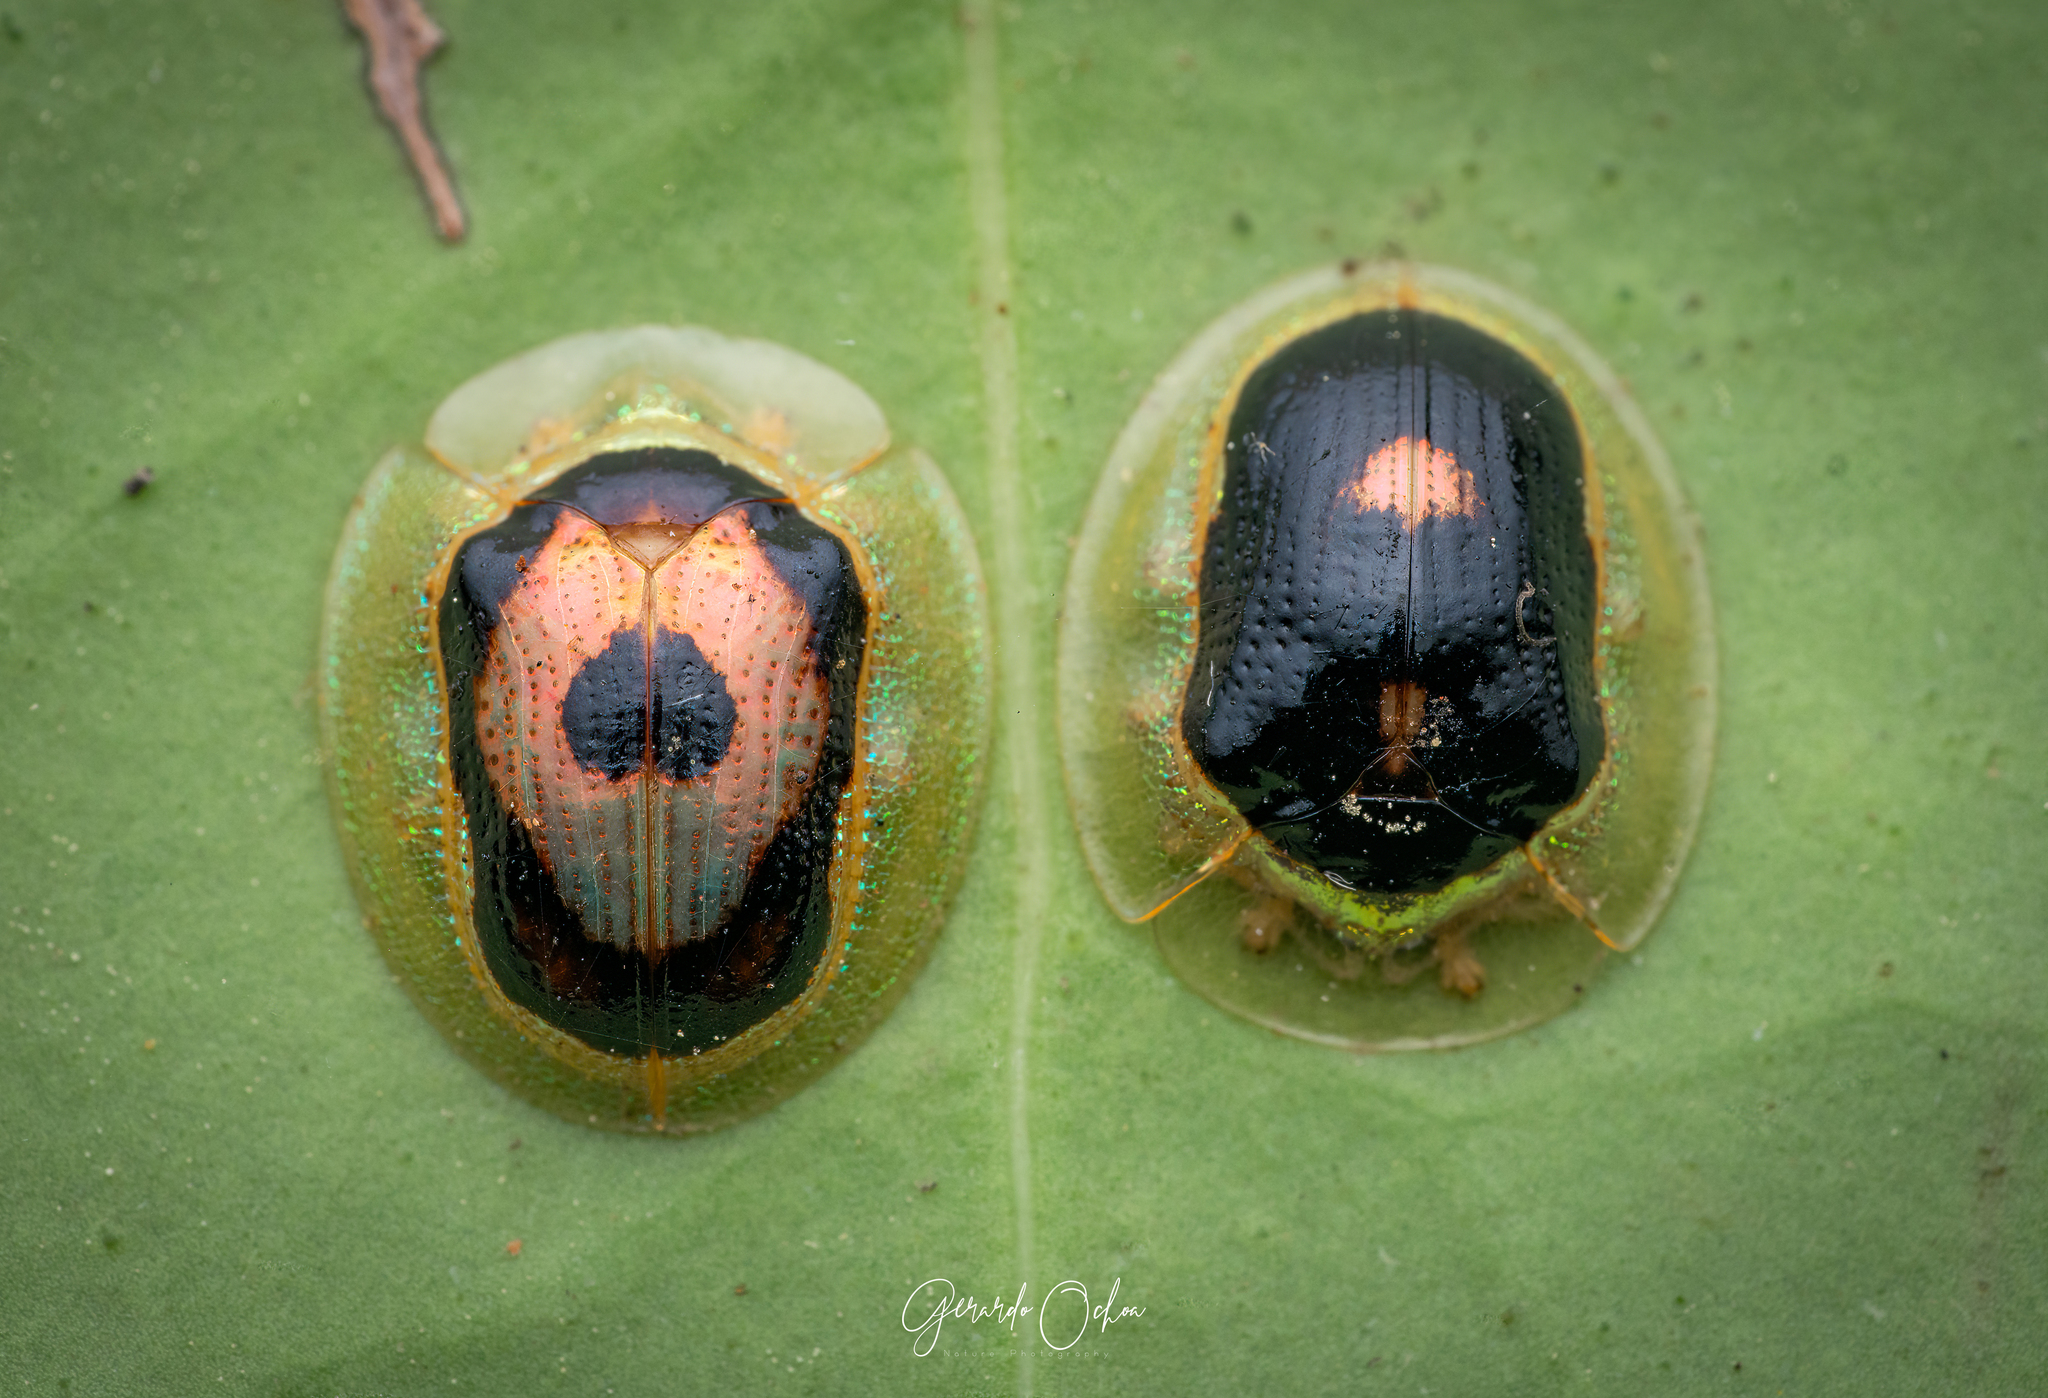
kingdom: Animalia
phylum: Arthropoda
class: Insecta
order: Coleoptera
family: Chrysomelidae
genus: Tapinaspis
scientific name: Tapinaspis wesmaeli
